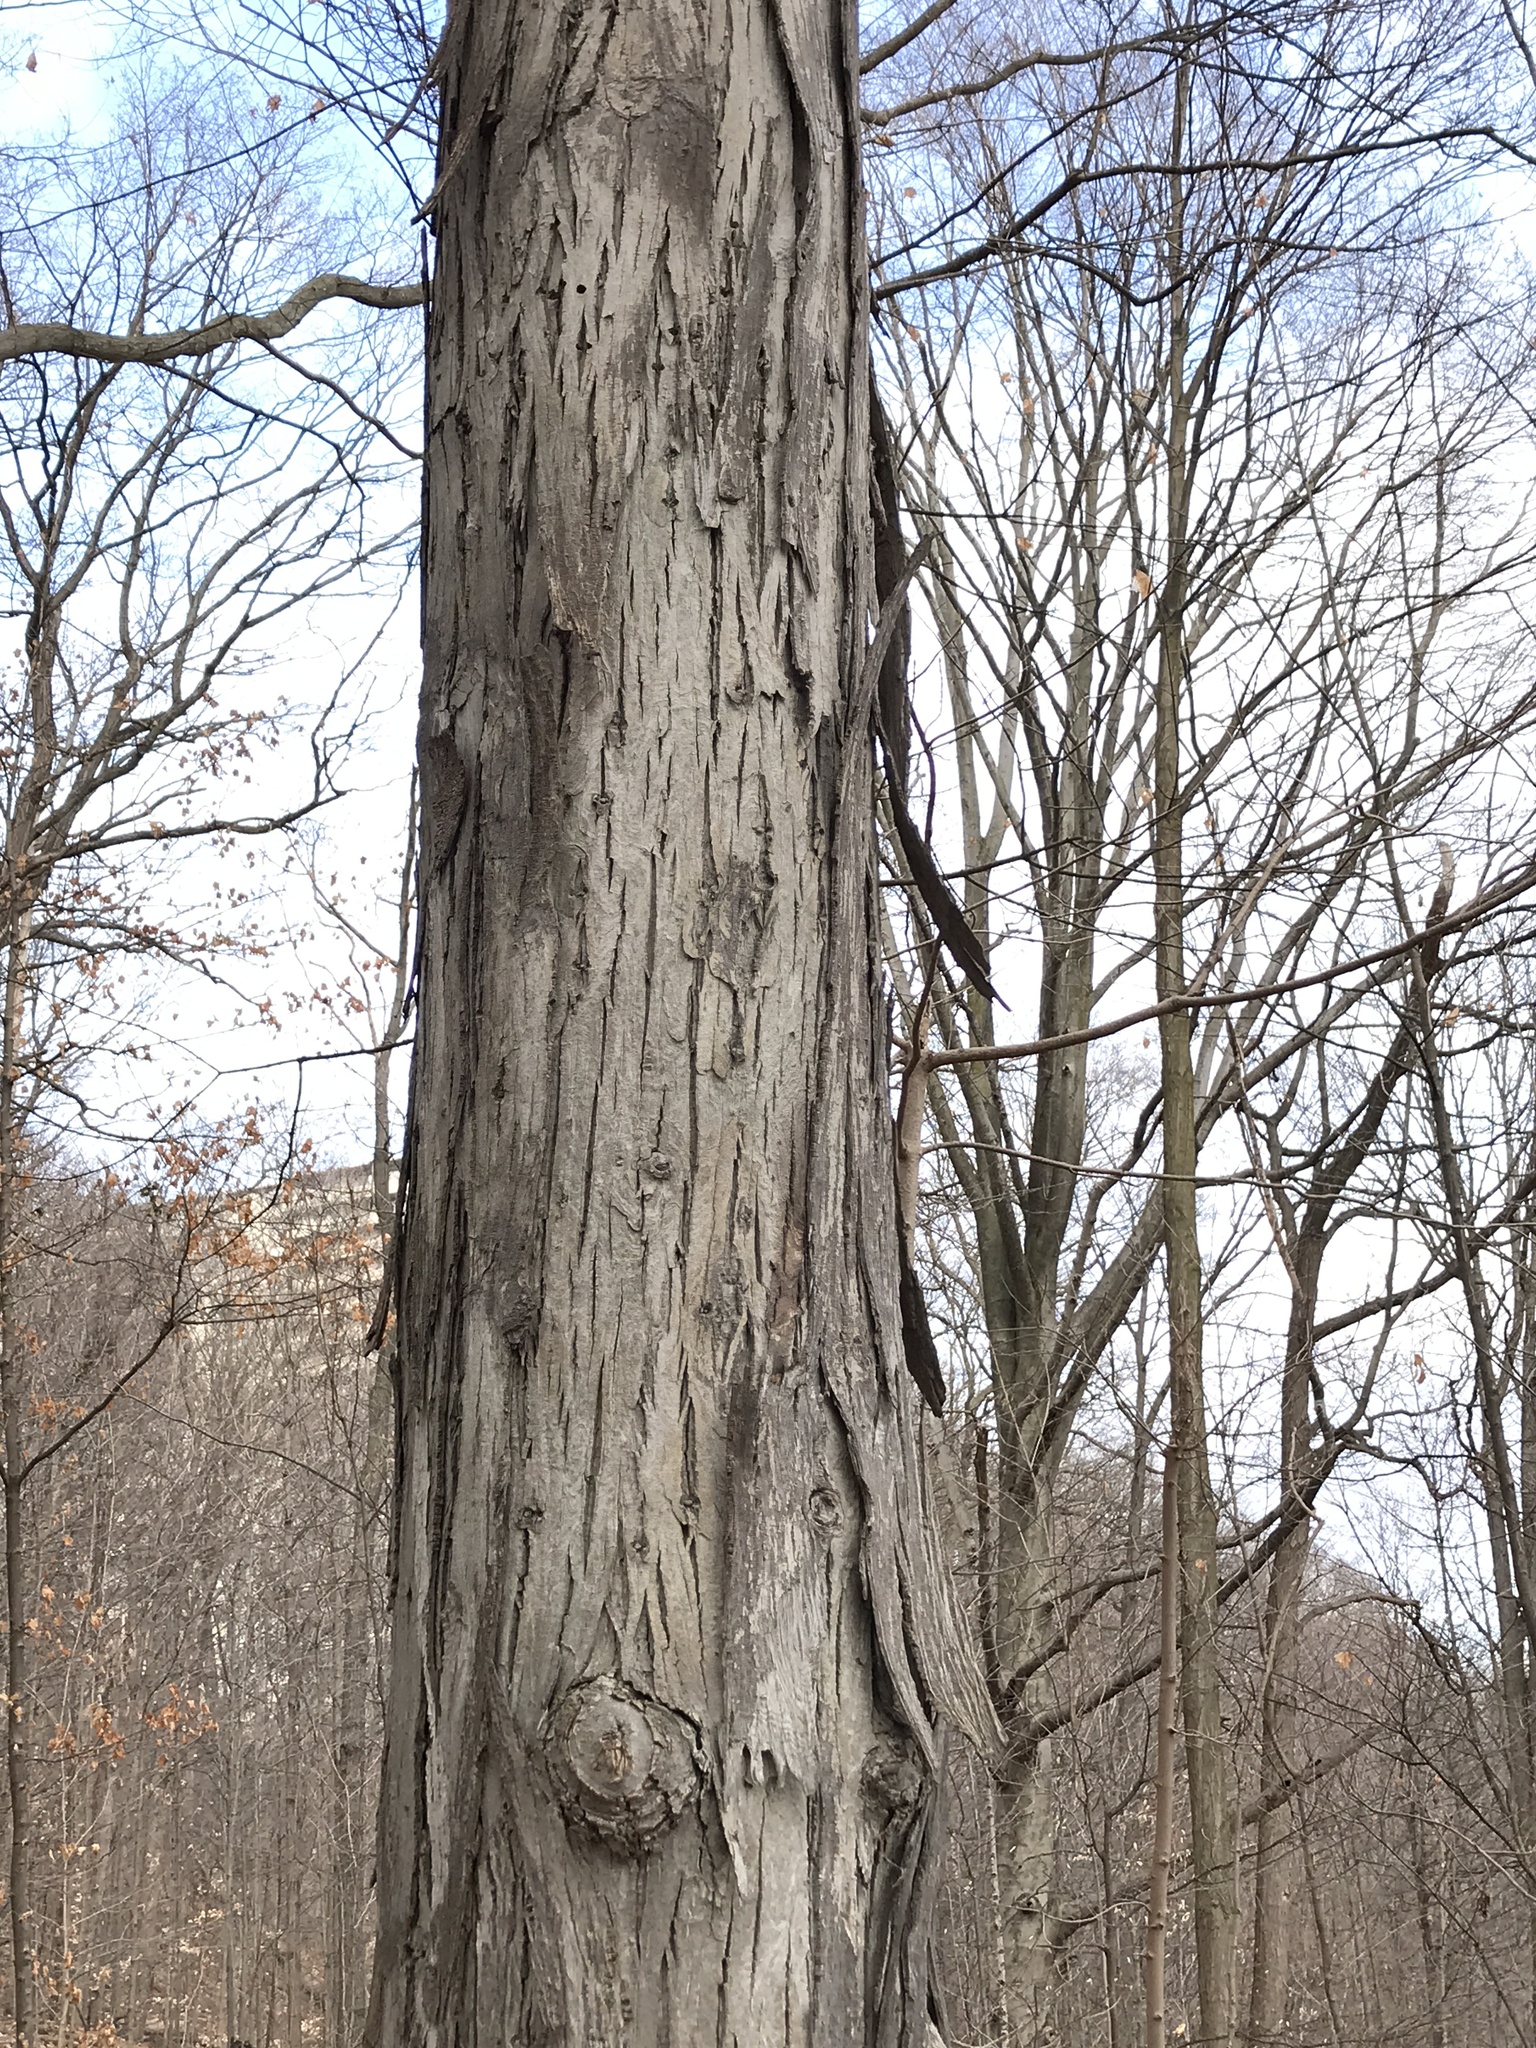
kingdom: Plantae
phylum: Tracheophyta
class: Magnoliopsida
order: Fagales
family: Juglandaceae
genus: Carya
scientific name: Carya ovata
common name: Shagbark hickory
